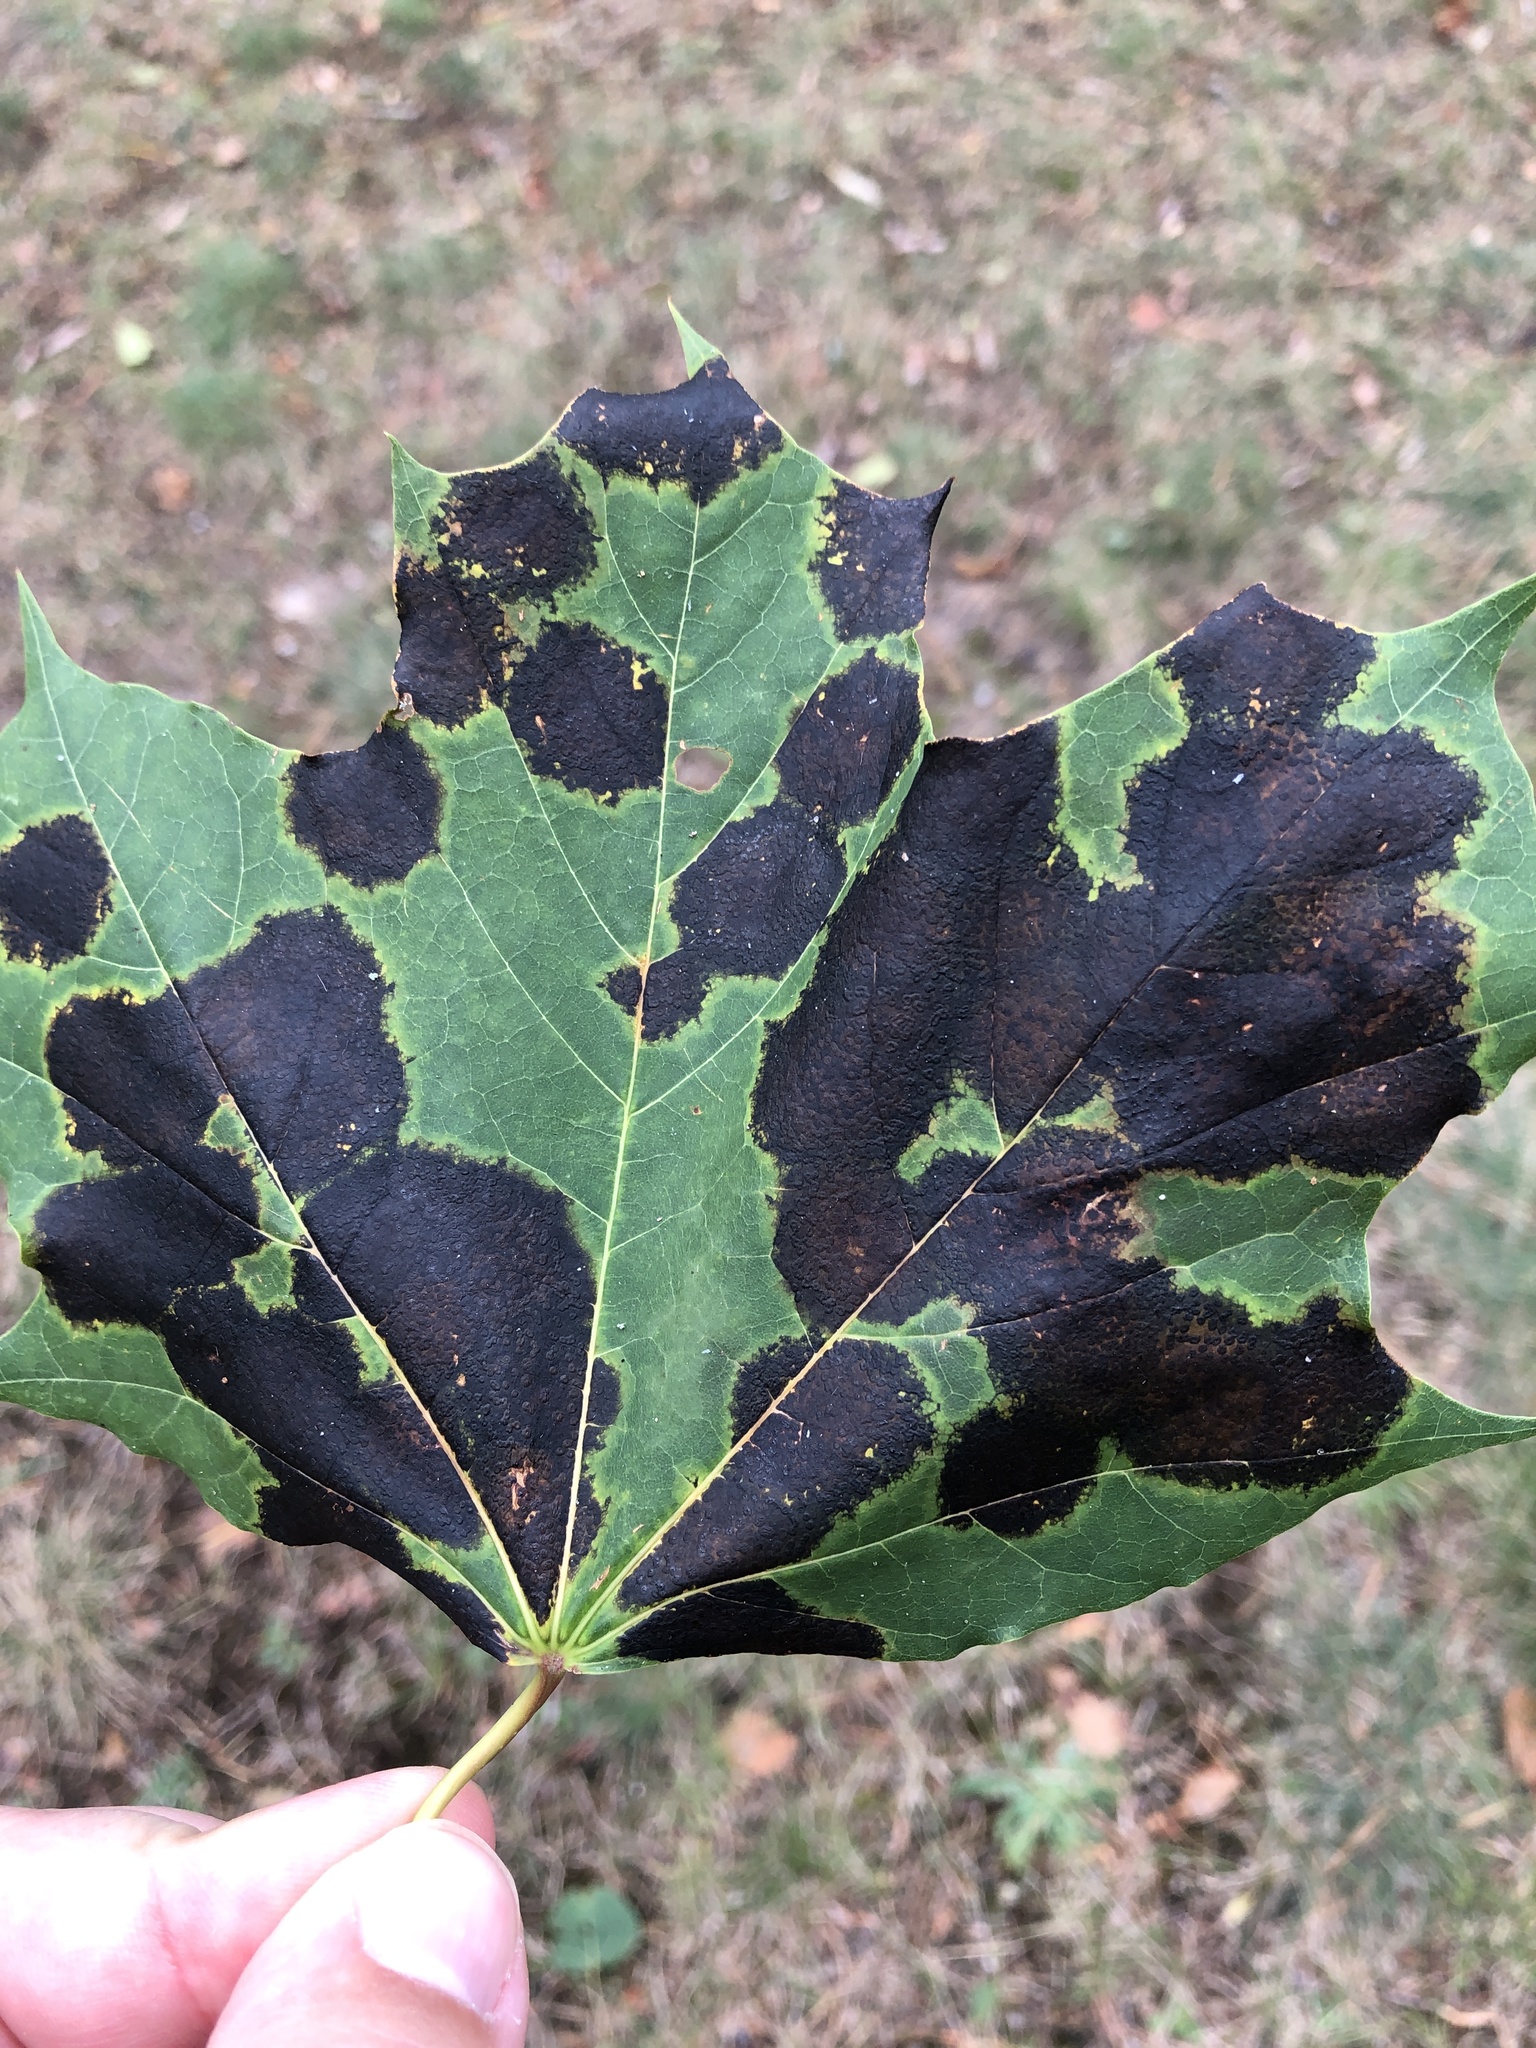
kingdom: Fungi
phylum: Ascomycota
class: Leotiomycetes
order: Rhytismatales
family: Rhytismataceae
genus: Rhytisma
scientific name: Rhytisma acerinum
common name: European tar spot
